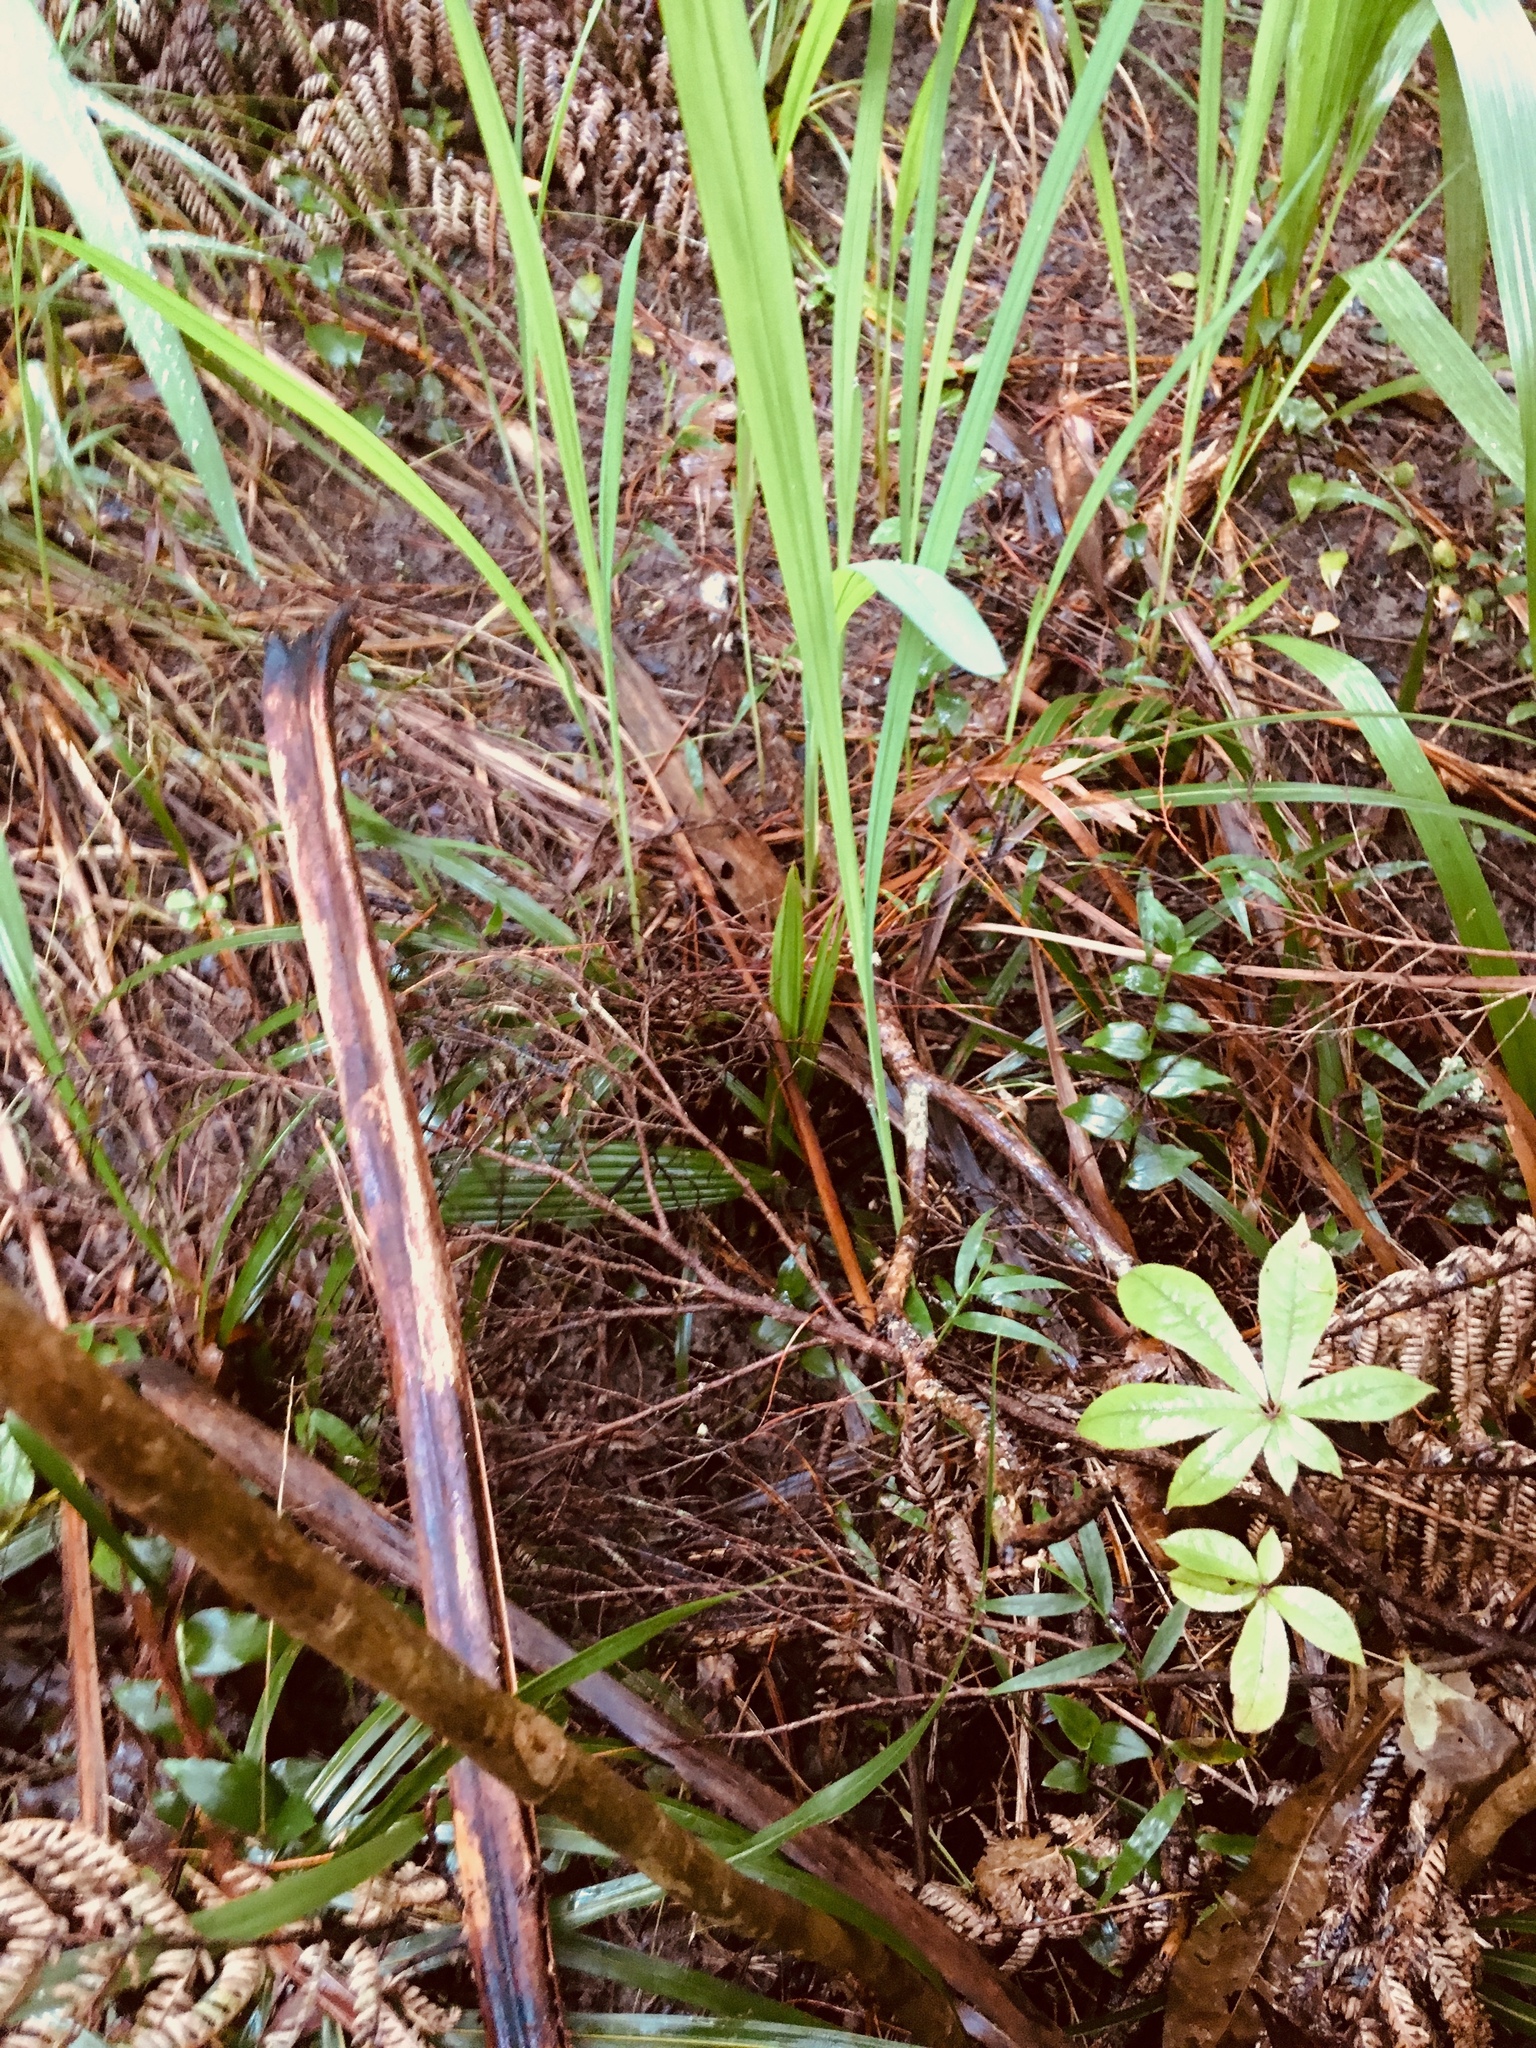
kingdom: Plantae
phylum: Tracheophyta
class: Liliopsida
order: Arecales
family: Arecaceae
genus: Phoenix
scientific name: Phoenix canariensis
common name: Canary island date palm
